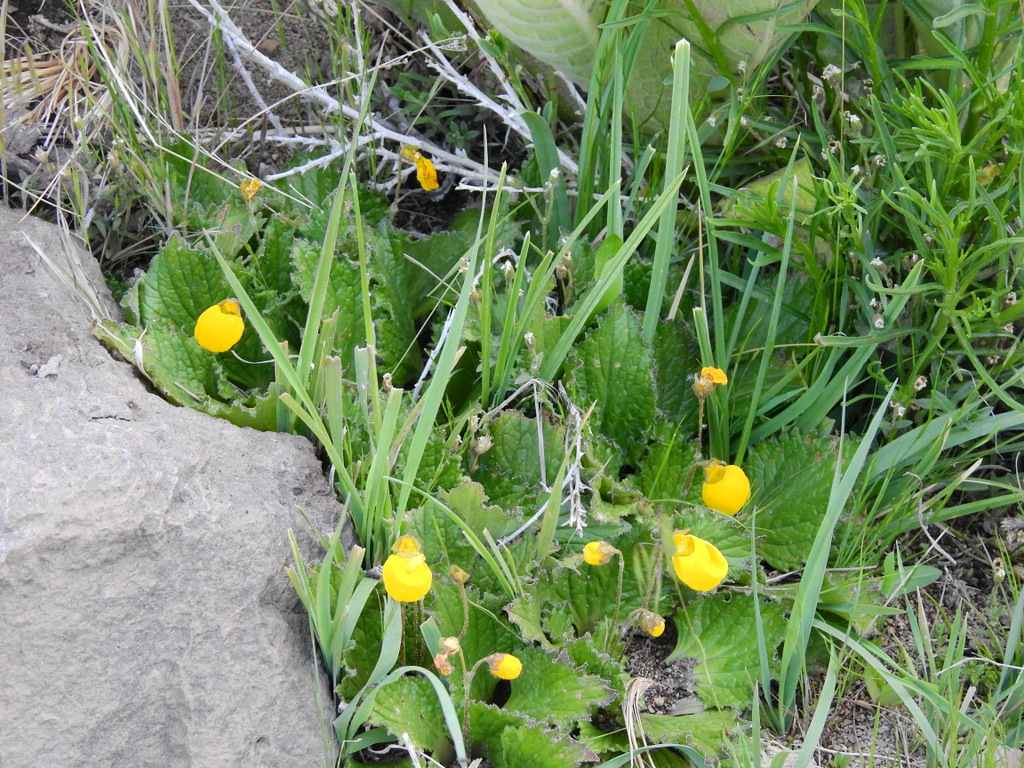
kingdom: Plantae
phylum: Tracheophyta
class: Magnoliopsida
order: Lamiales
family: Calceolariaceae
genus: Calceolaria
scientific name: Calceolaria filicaulis
